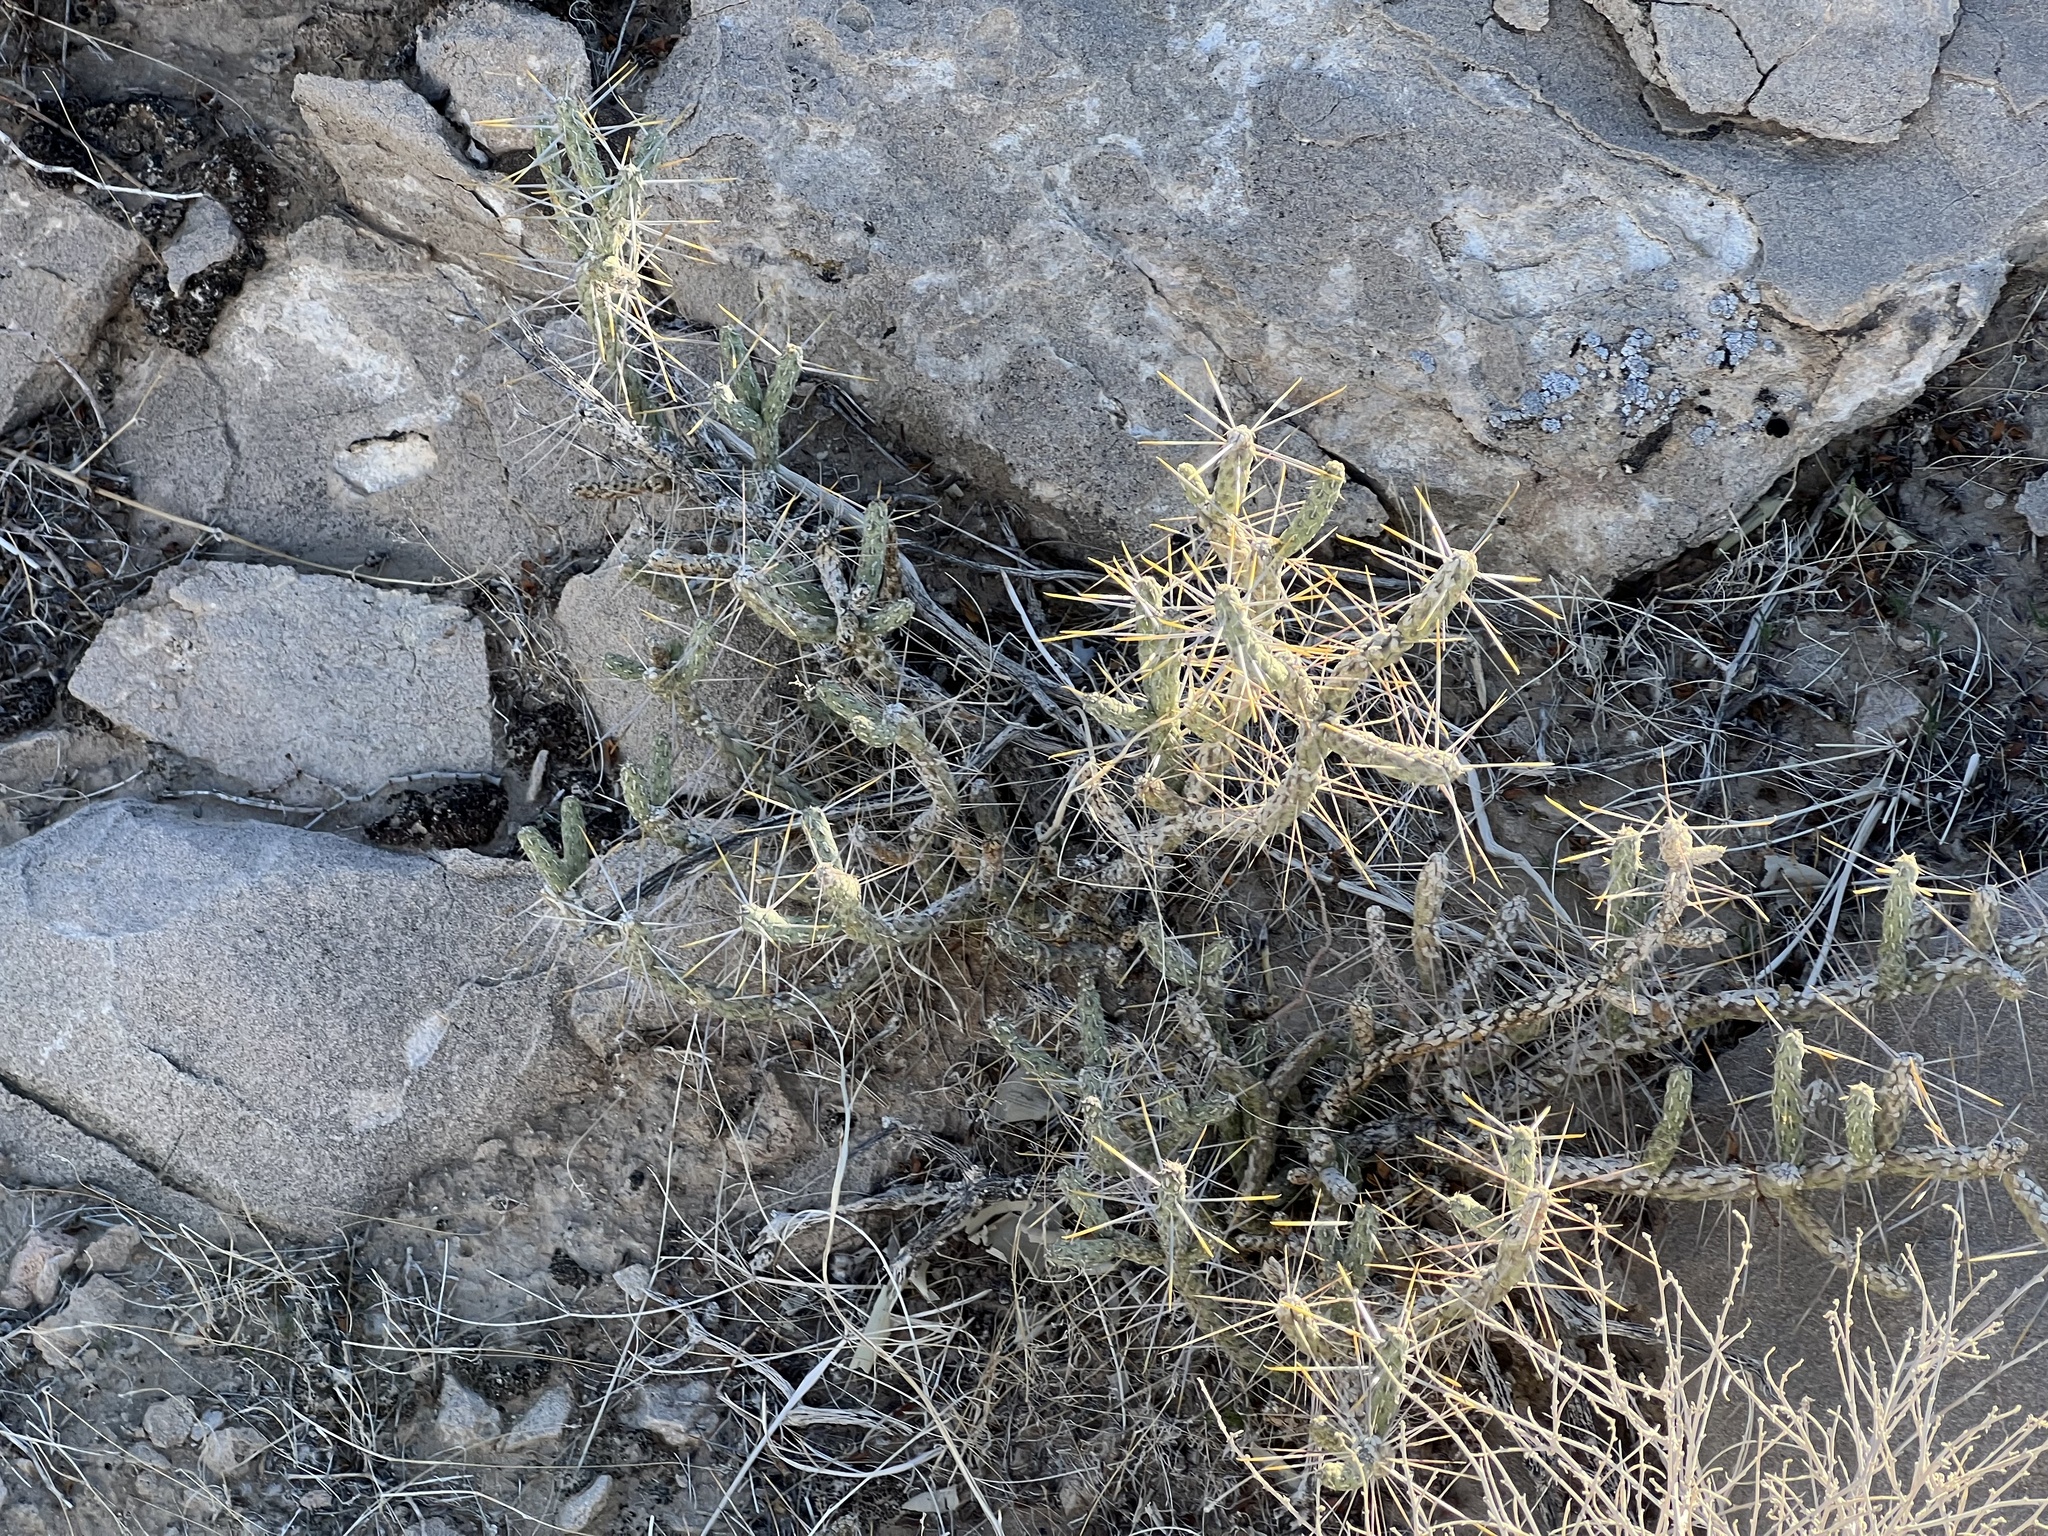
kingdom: Plantae
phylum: Tracheophyta
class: Magnoliopsida
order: Caryophyllales
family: Cactaceae
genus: Cylindropuntia
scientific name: Cylindropuntia ramosissima
